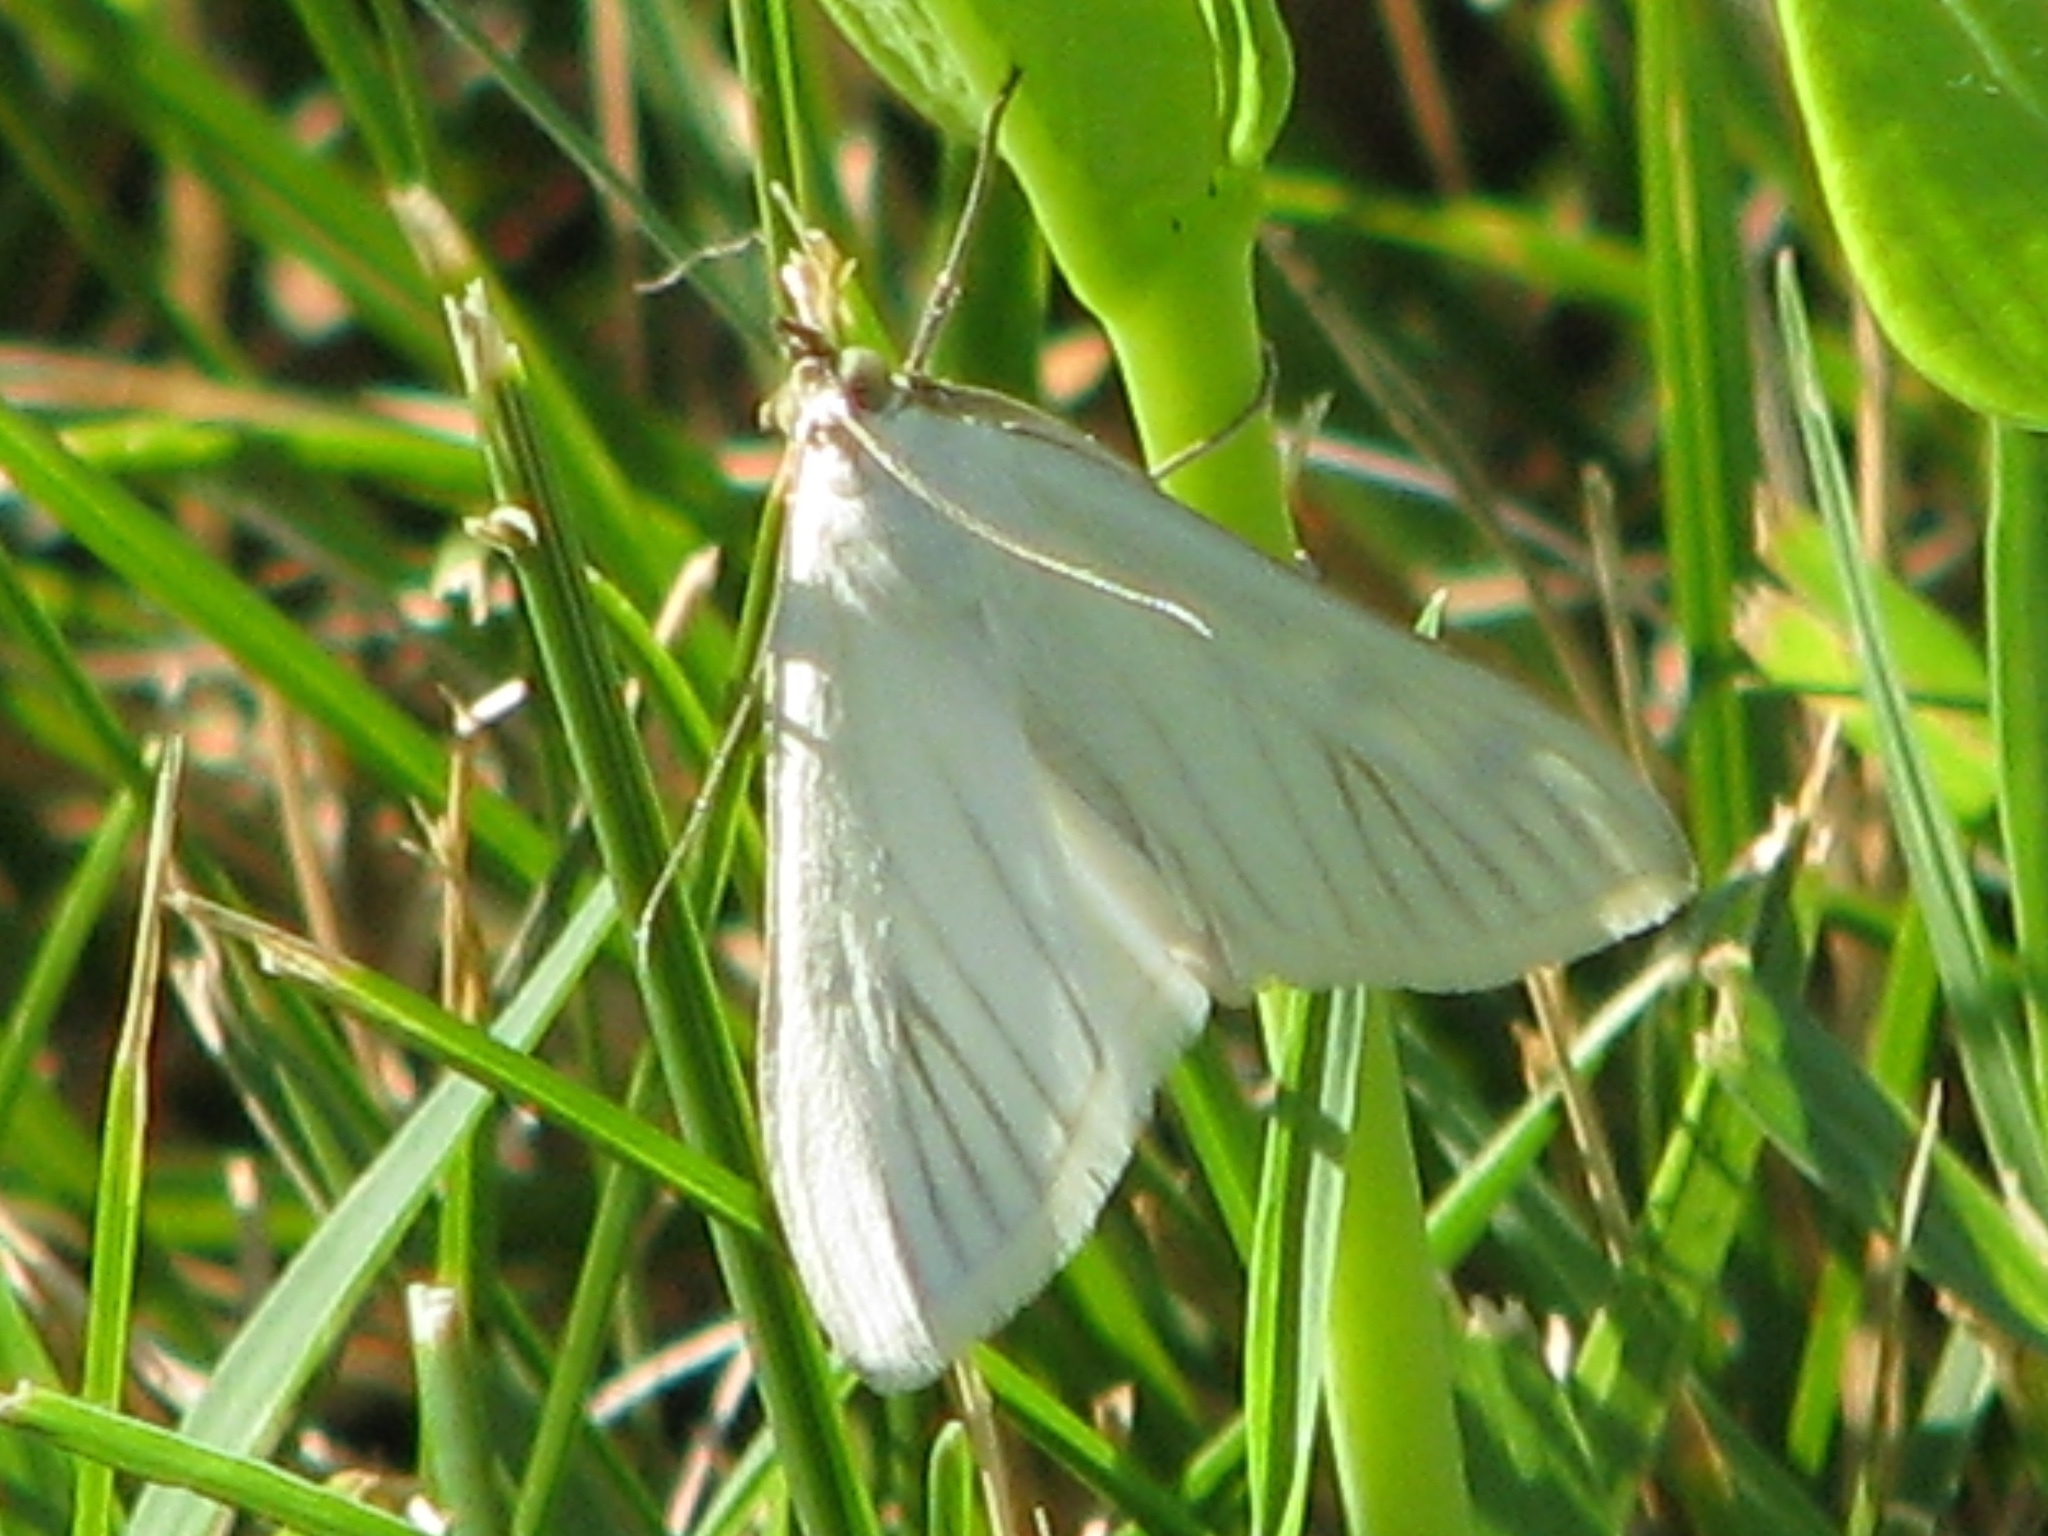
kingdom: Animalia
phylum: Arthropoda
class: Insecta
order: Lepidoptera
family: Crambidae
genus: Sitochroa
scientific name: Sitochroa palealis
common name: Greenish-yellow sitochroa moth
